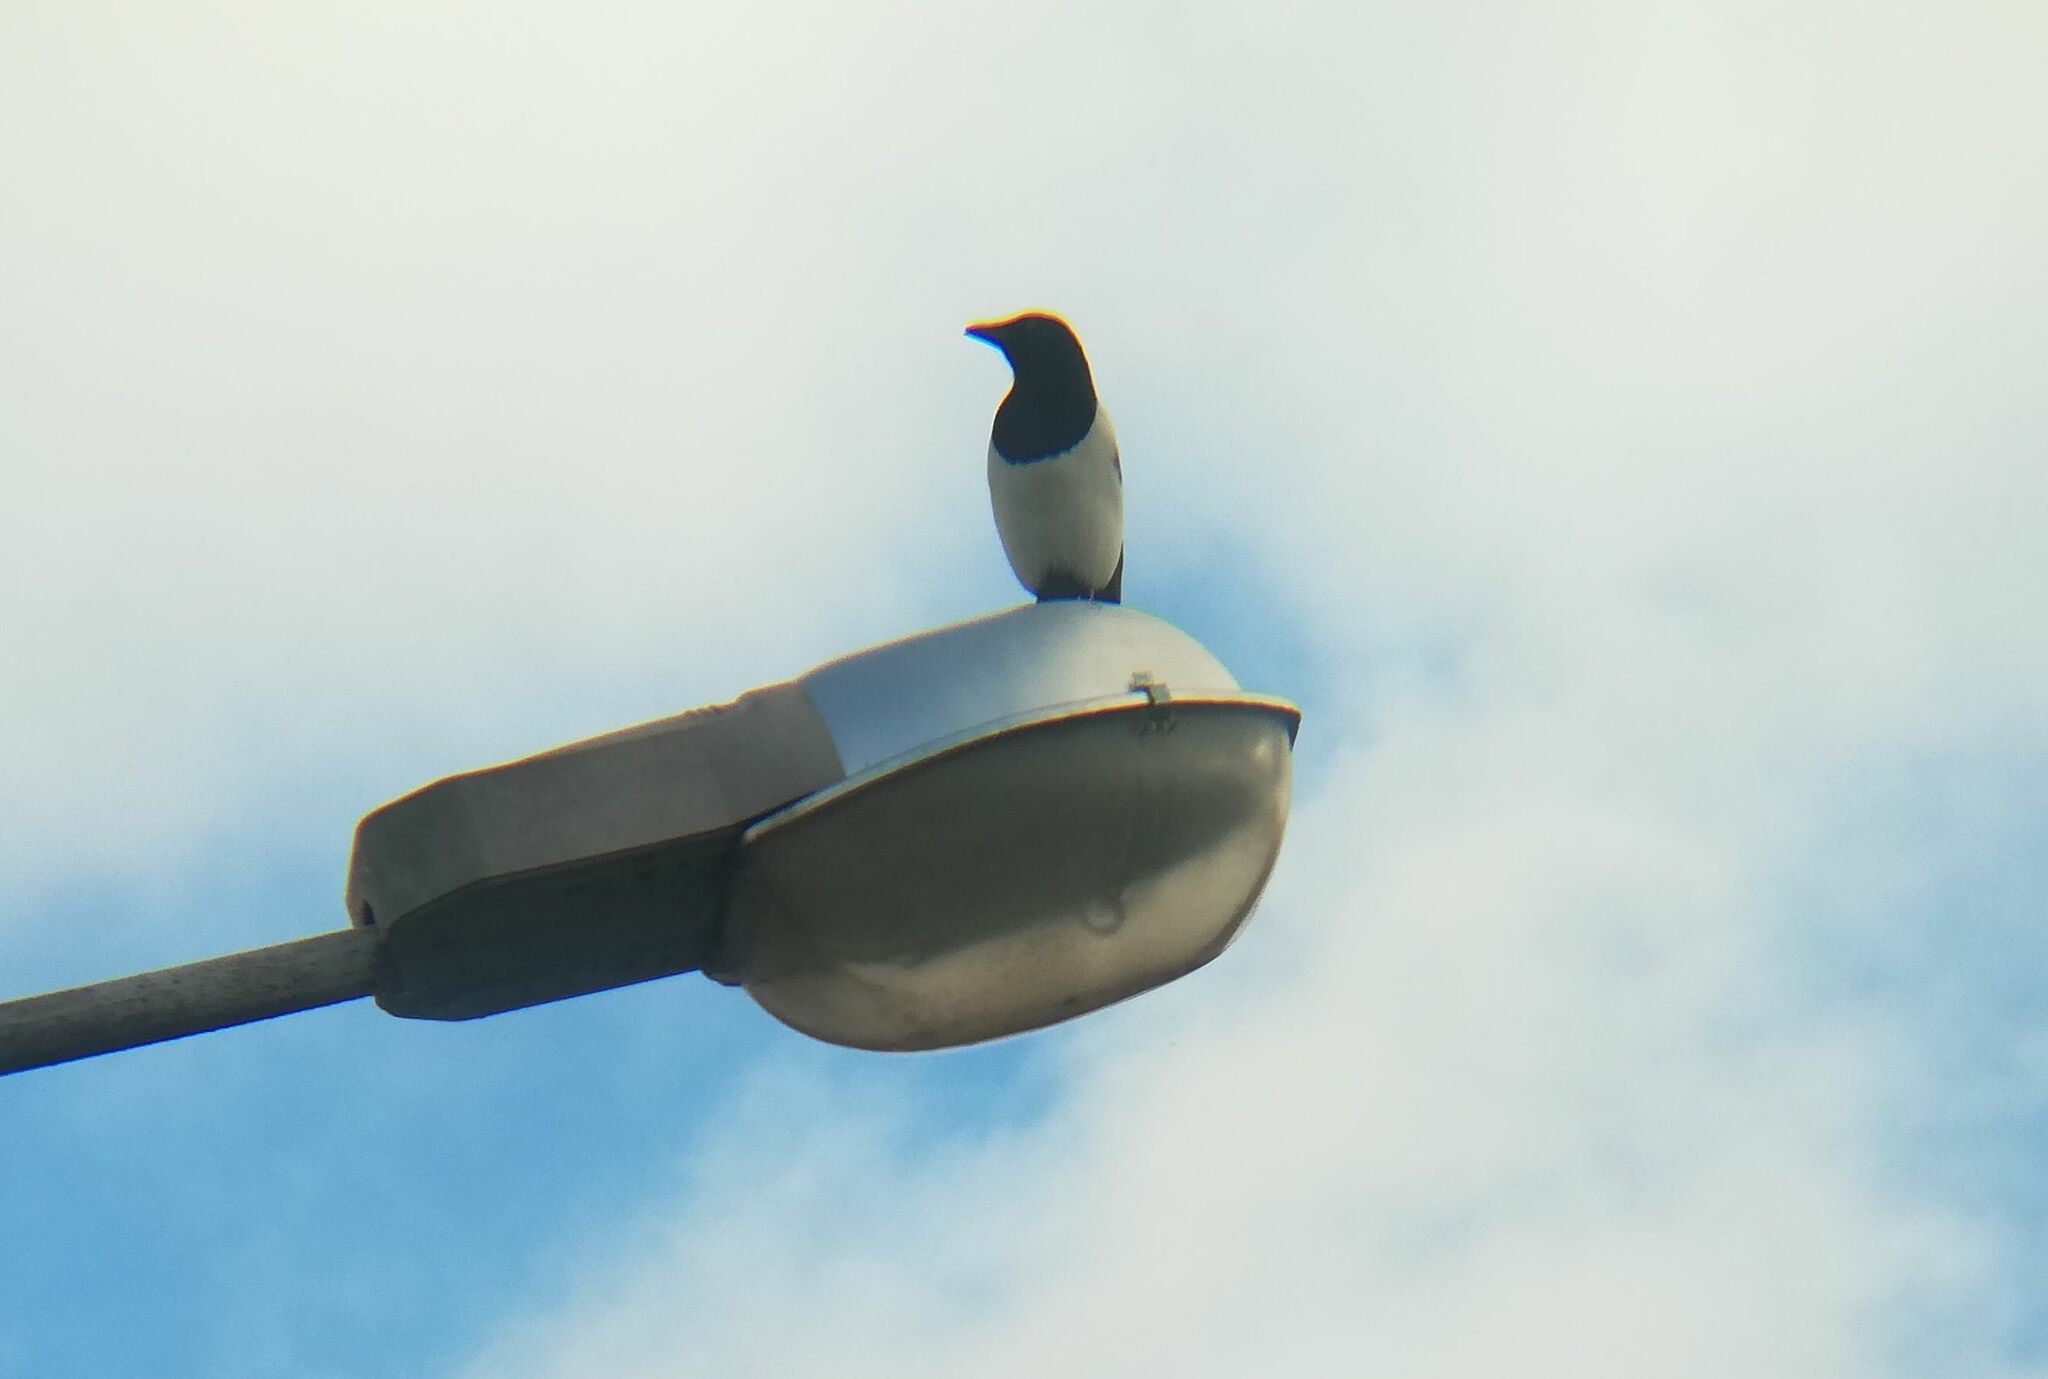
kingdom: Animalia
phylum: Chordata
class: Aves
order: Passeriformes
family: Corvidae
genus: Pica
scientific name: Pica pica
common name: Eurasian magpie
